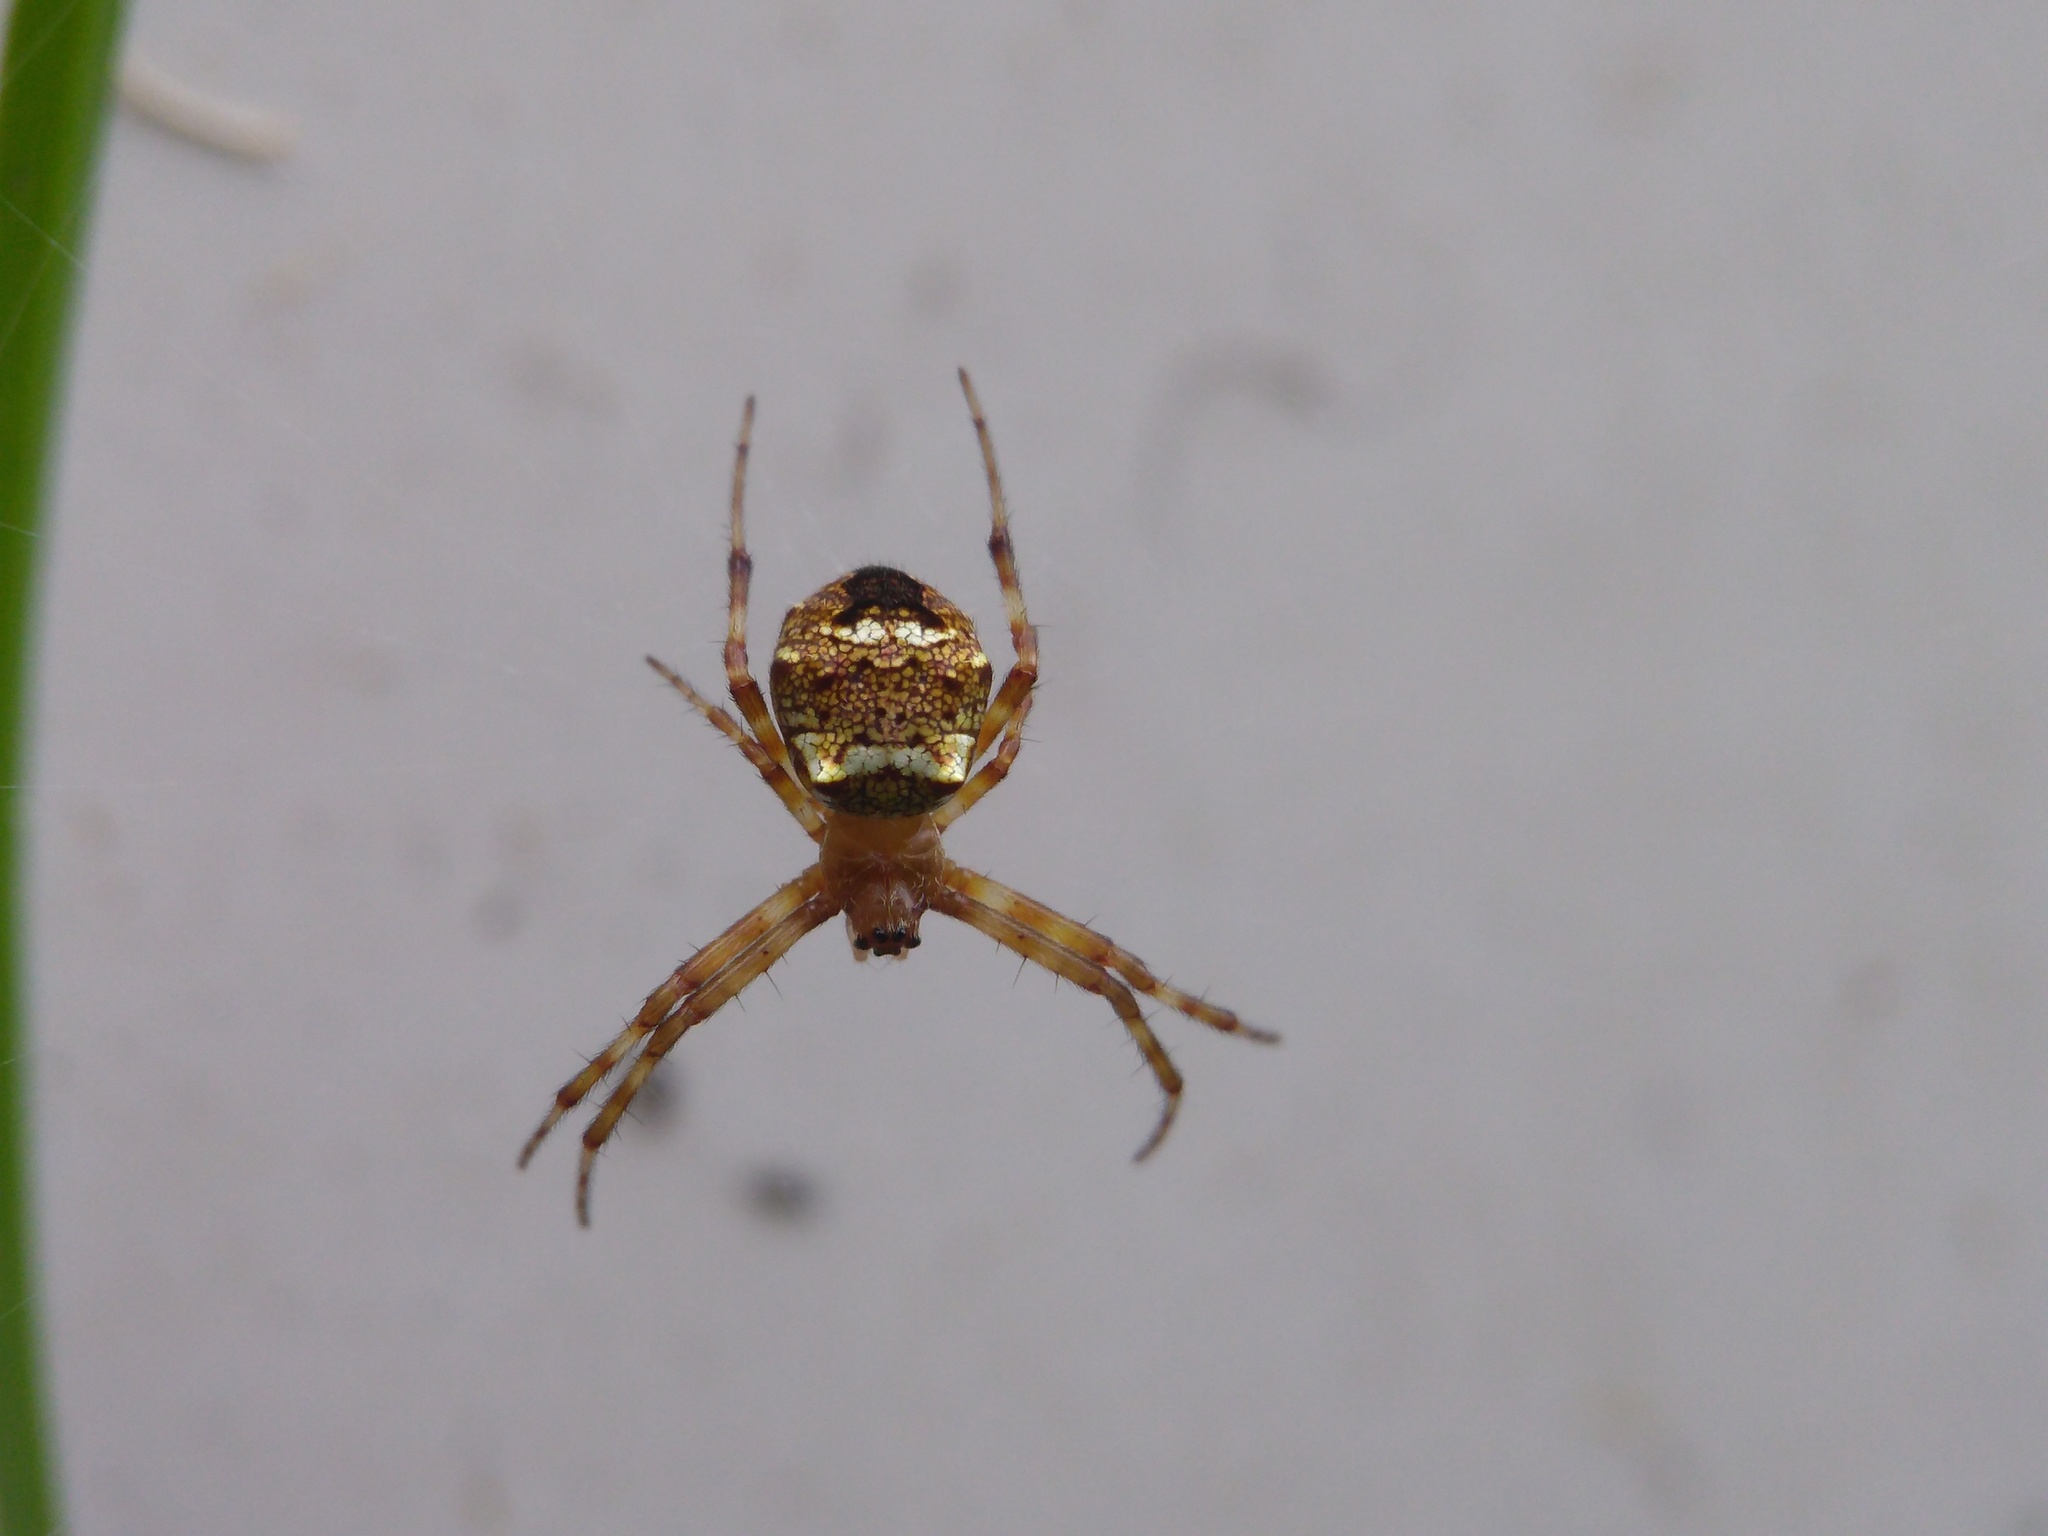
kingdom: Animalia
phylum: Arthropoda
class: Arachnida
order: Araneae
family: Araneidae
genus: Gea
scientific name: Gea heptagon
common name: Orb weavers
